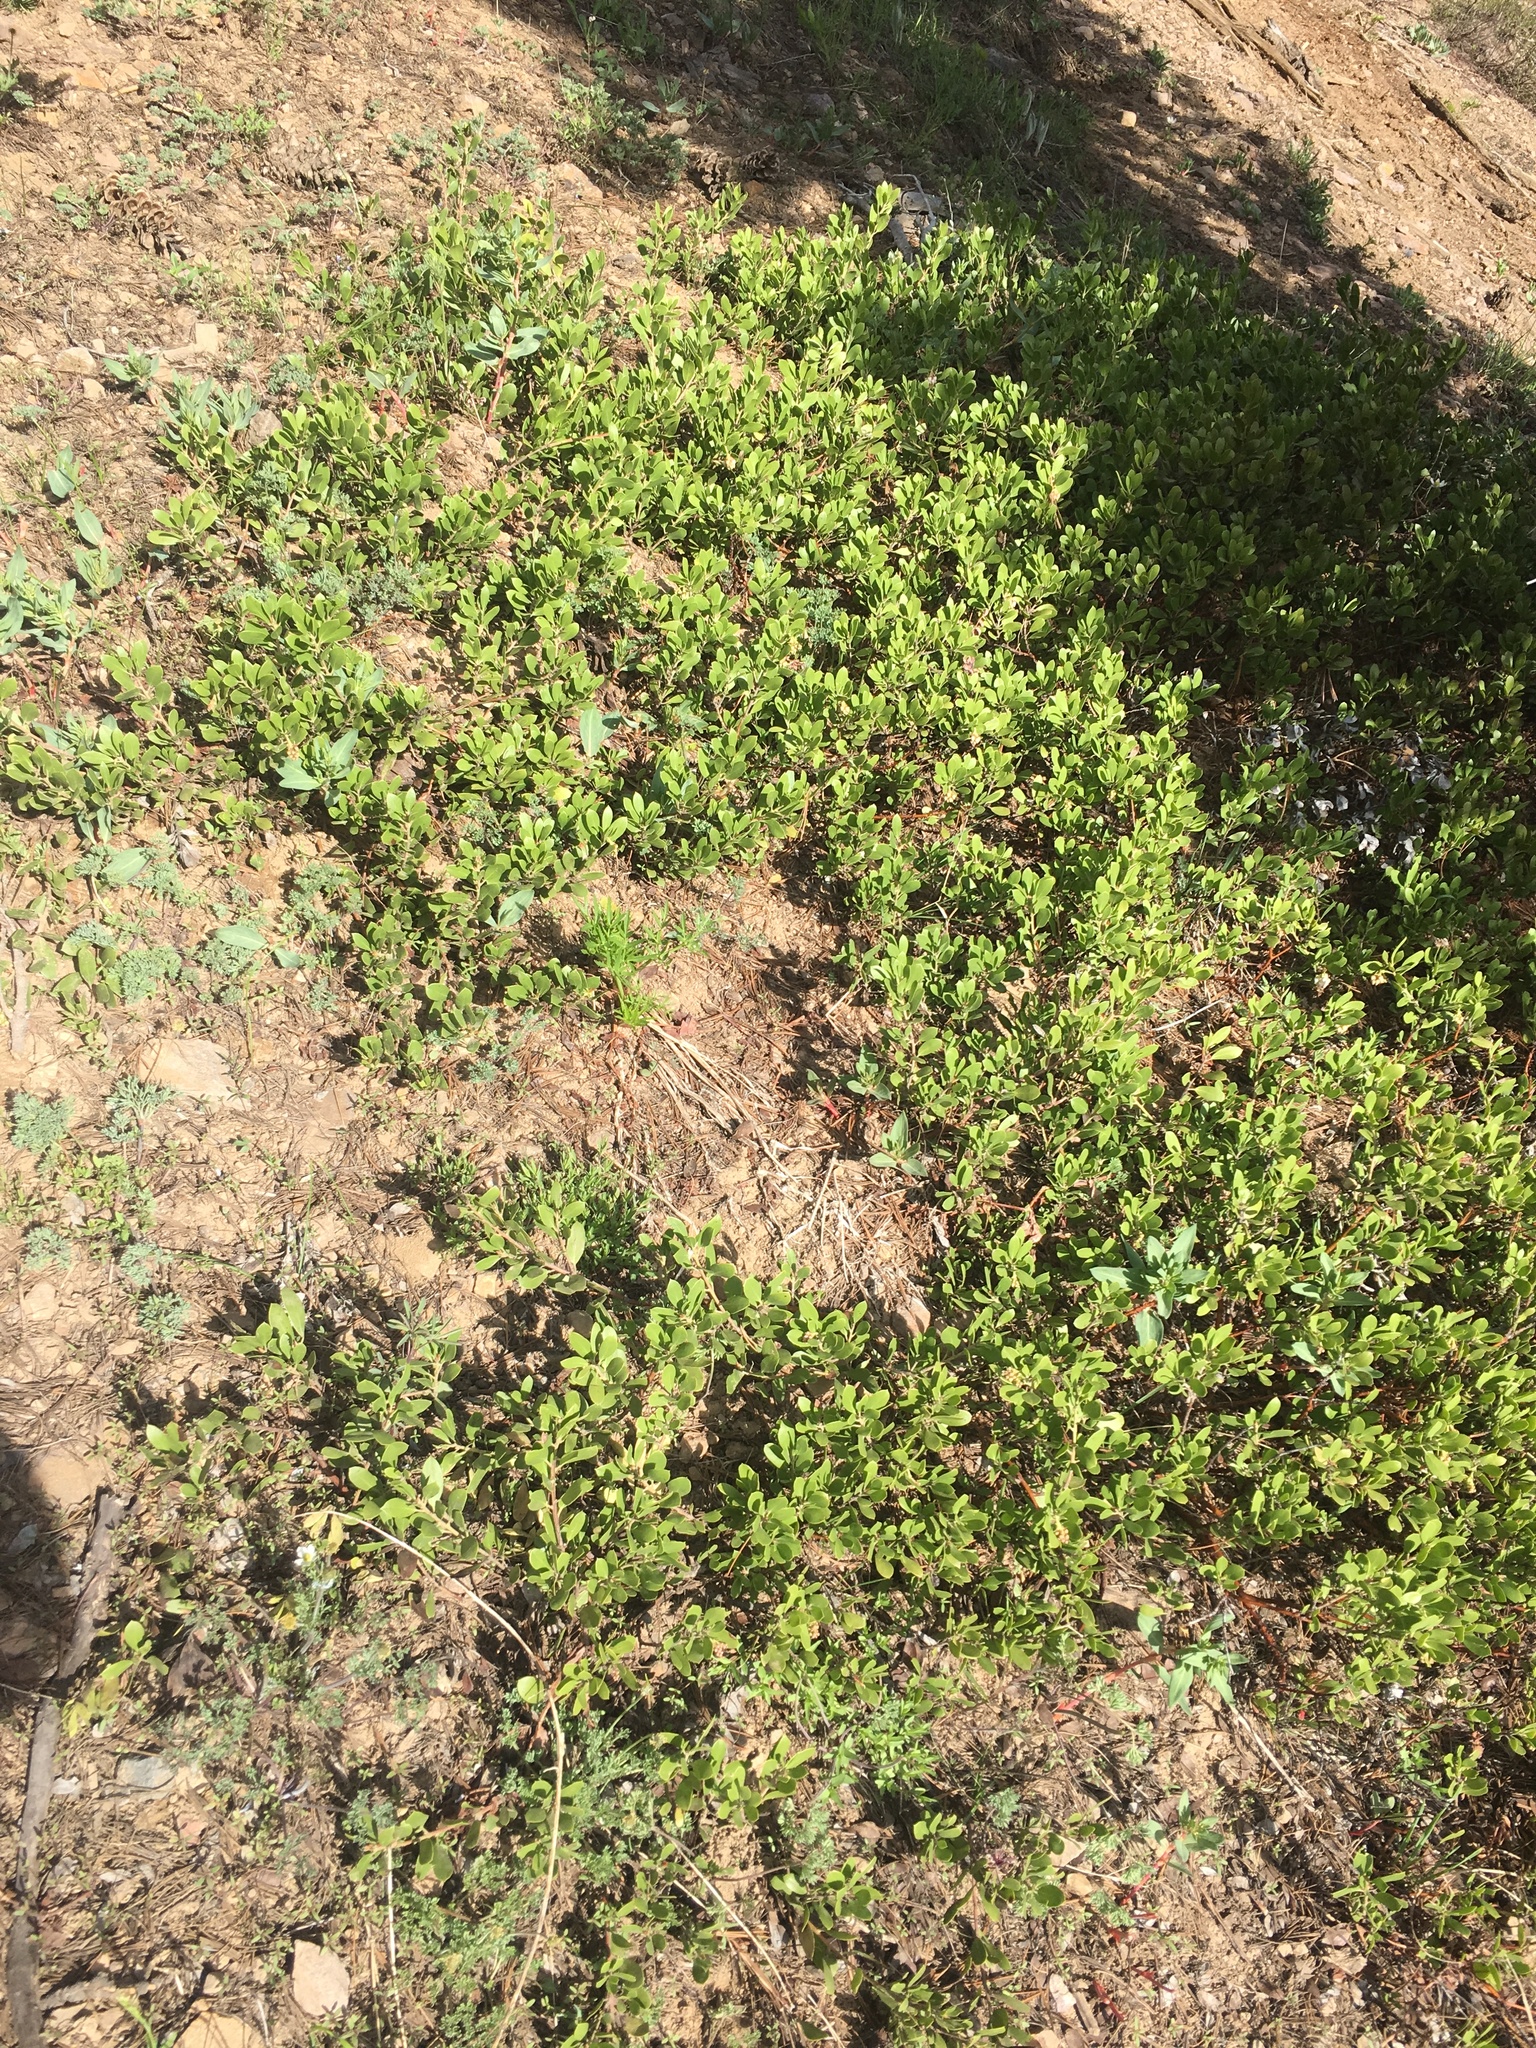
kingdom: Plantae
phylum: Tracheophyta
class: Magnoliopsida
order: Ericales
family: Ericaceae
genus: Arctostaphylos
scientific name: Arctostaphylos nevadensis
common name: Pinemat manzanita
